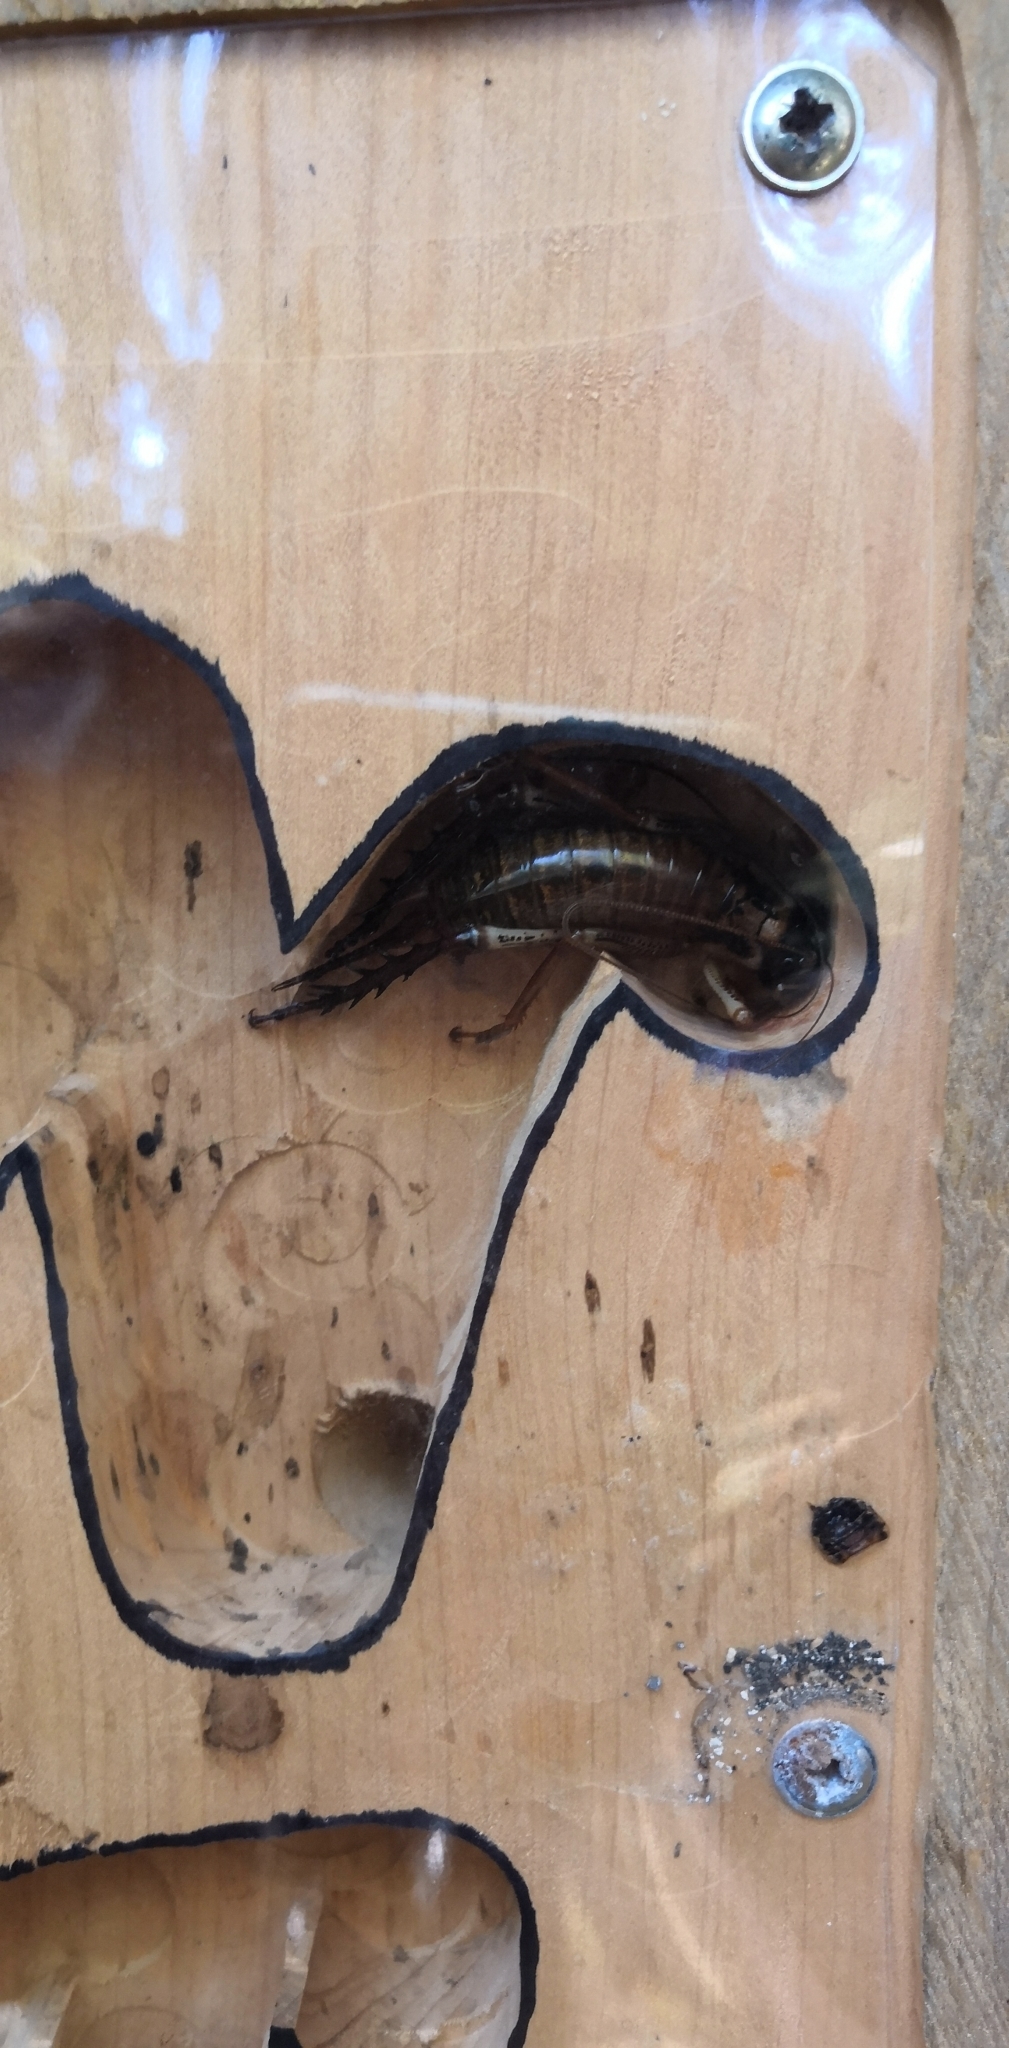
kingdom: Animalia
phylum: Arthropoda
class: Insecta
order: Orthoptera
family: Anostostomatidae
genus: Hemideina
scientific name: Hemideina thoracica
